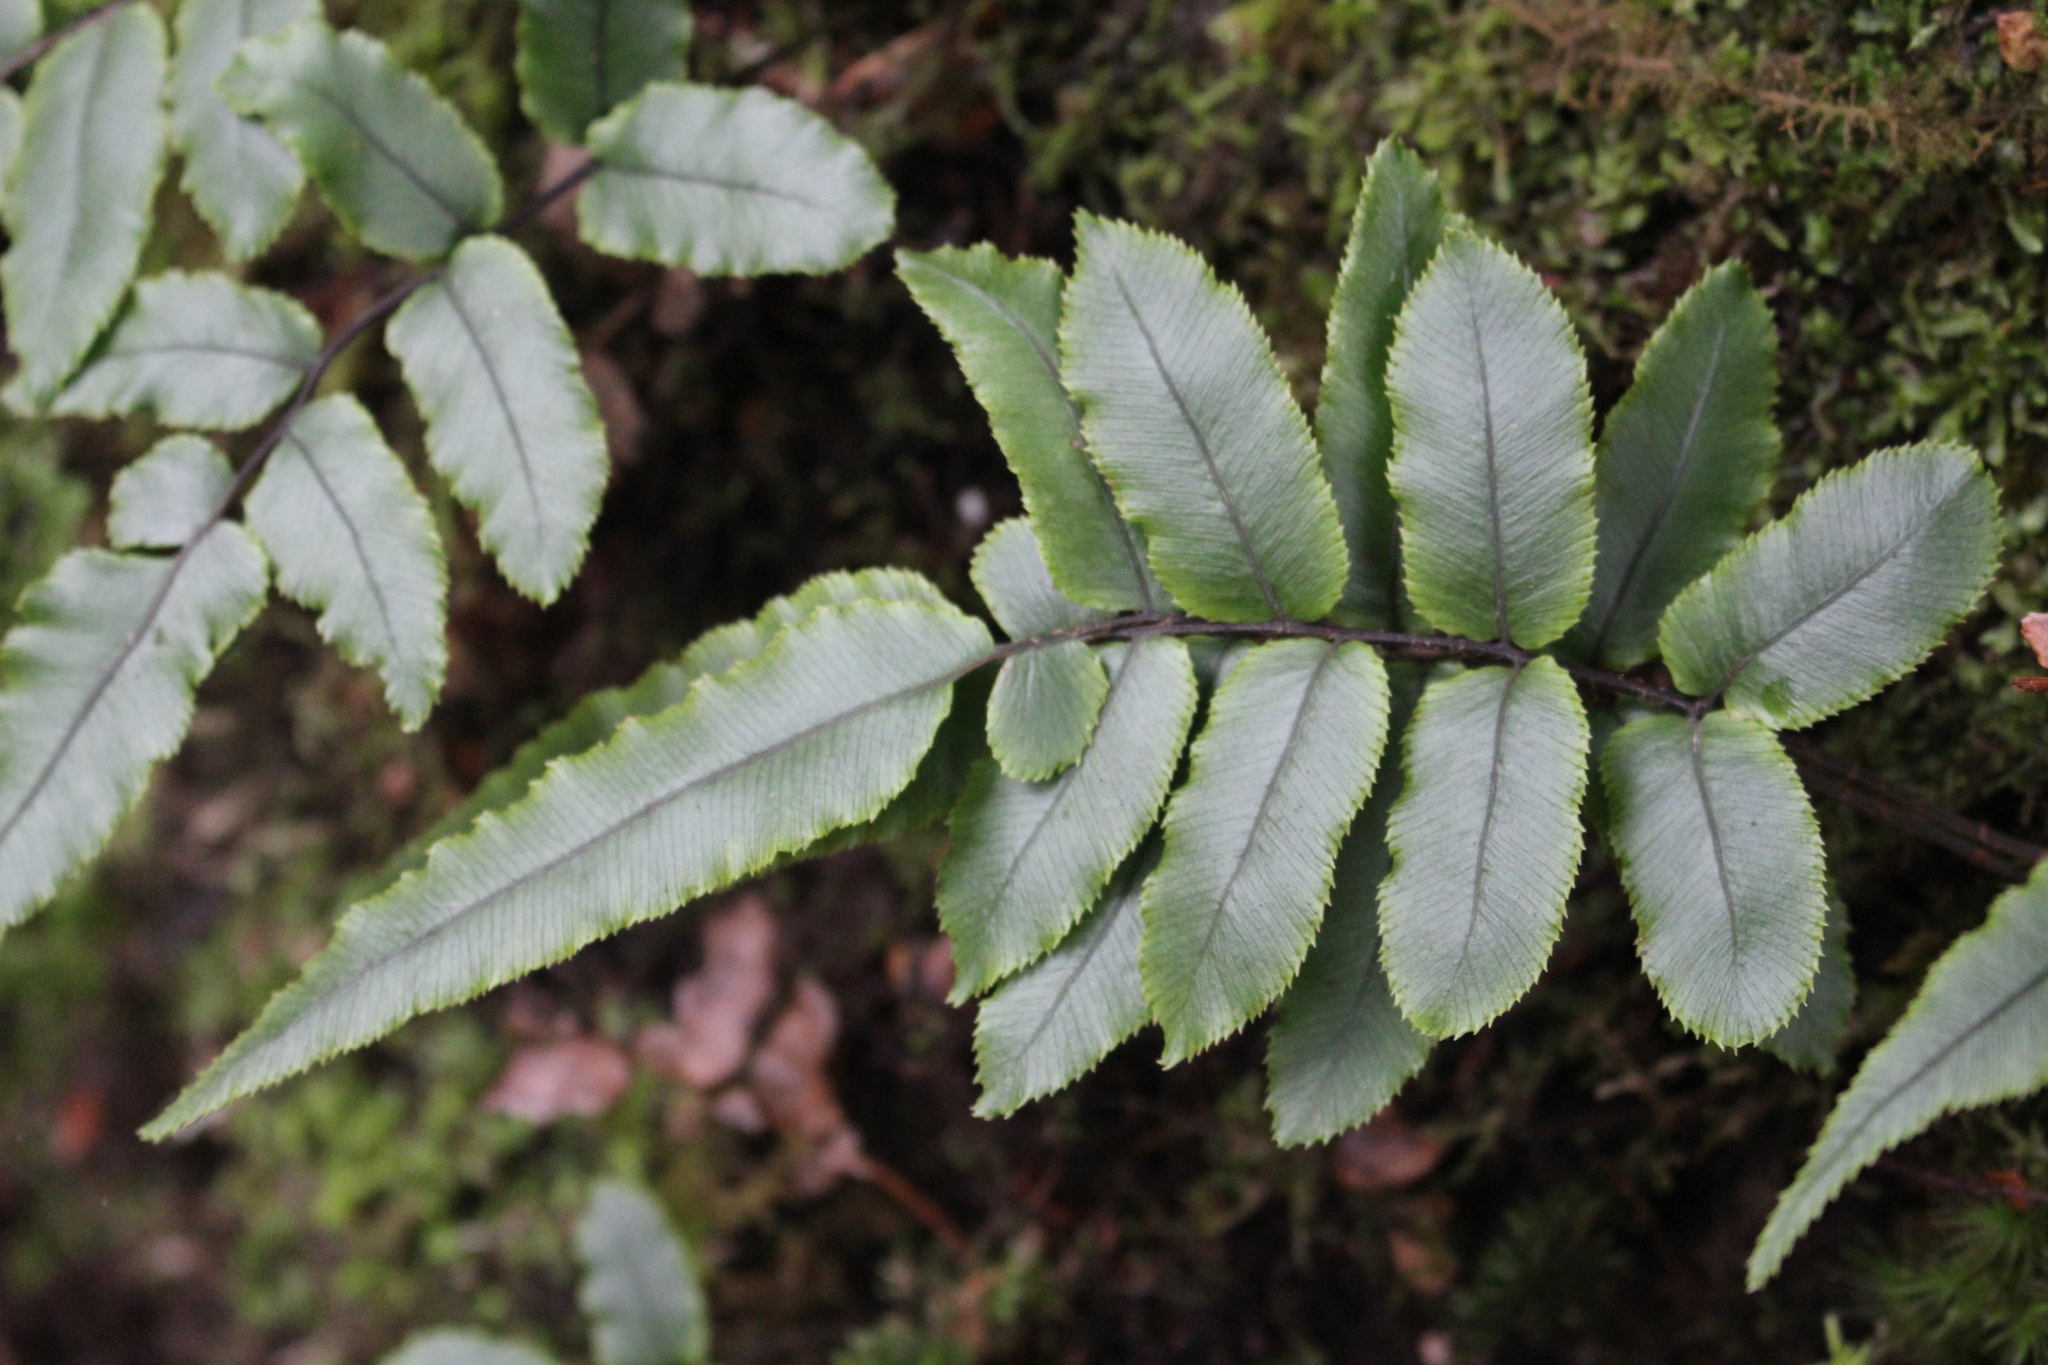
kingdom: Plantae
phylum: Tracheophyta
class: Polypodiopsida
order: Polypodiales
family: Blechnaceae
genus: Parablechnum
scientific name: Parablechnum procerum
